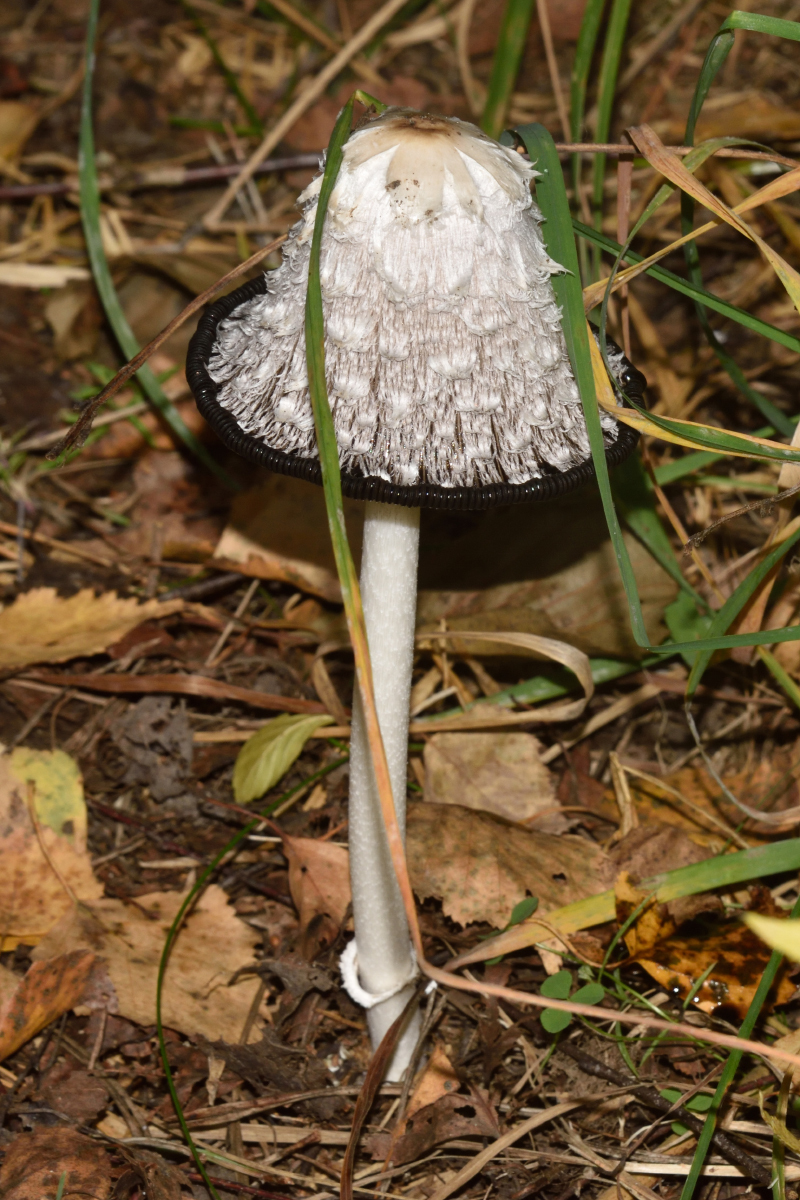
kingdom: Fungi
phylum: Basidiomycota
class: Agaricomycetes
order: Agaricales
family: Agaricaceae
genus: Coprinus
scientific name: Coprinus comatus
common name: Lawyer's wig
